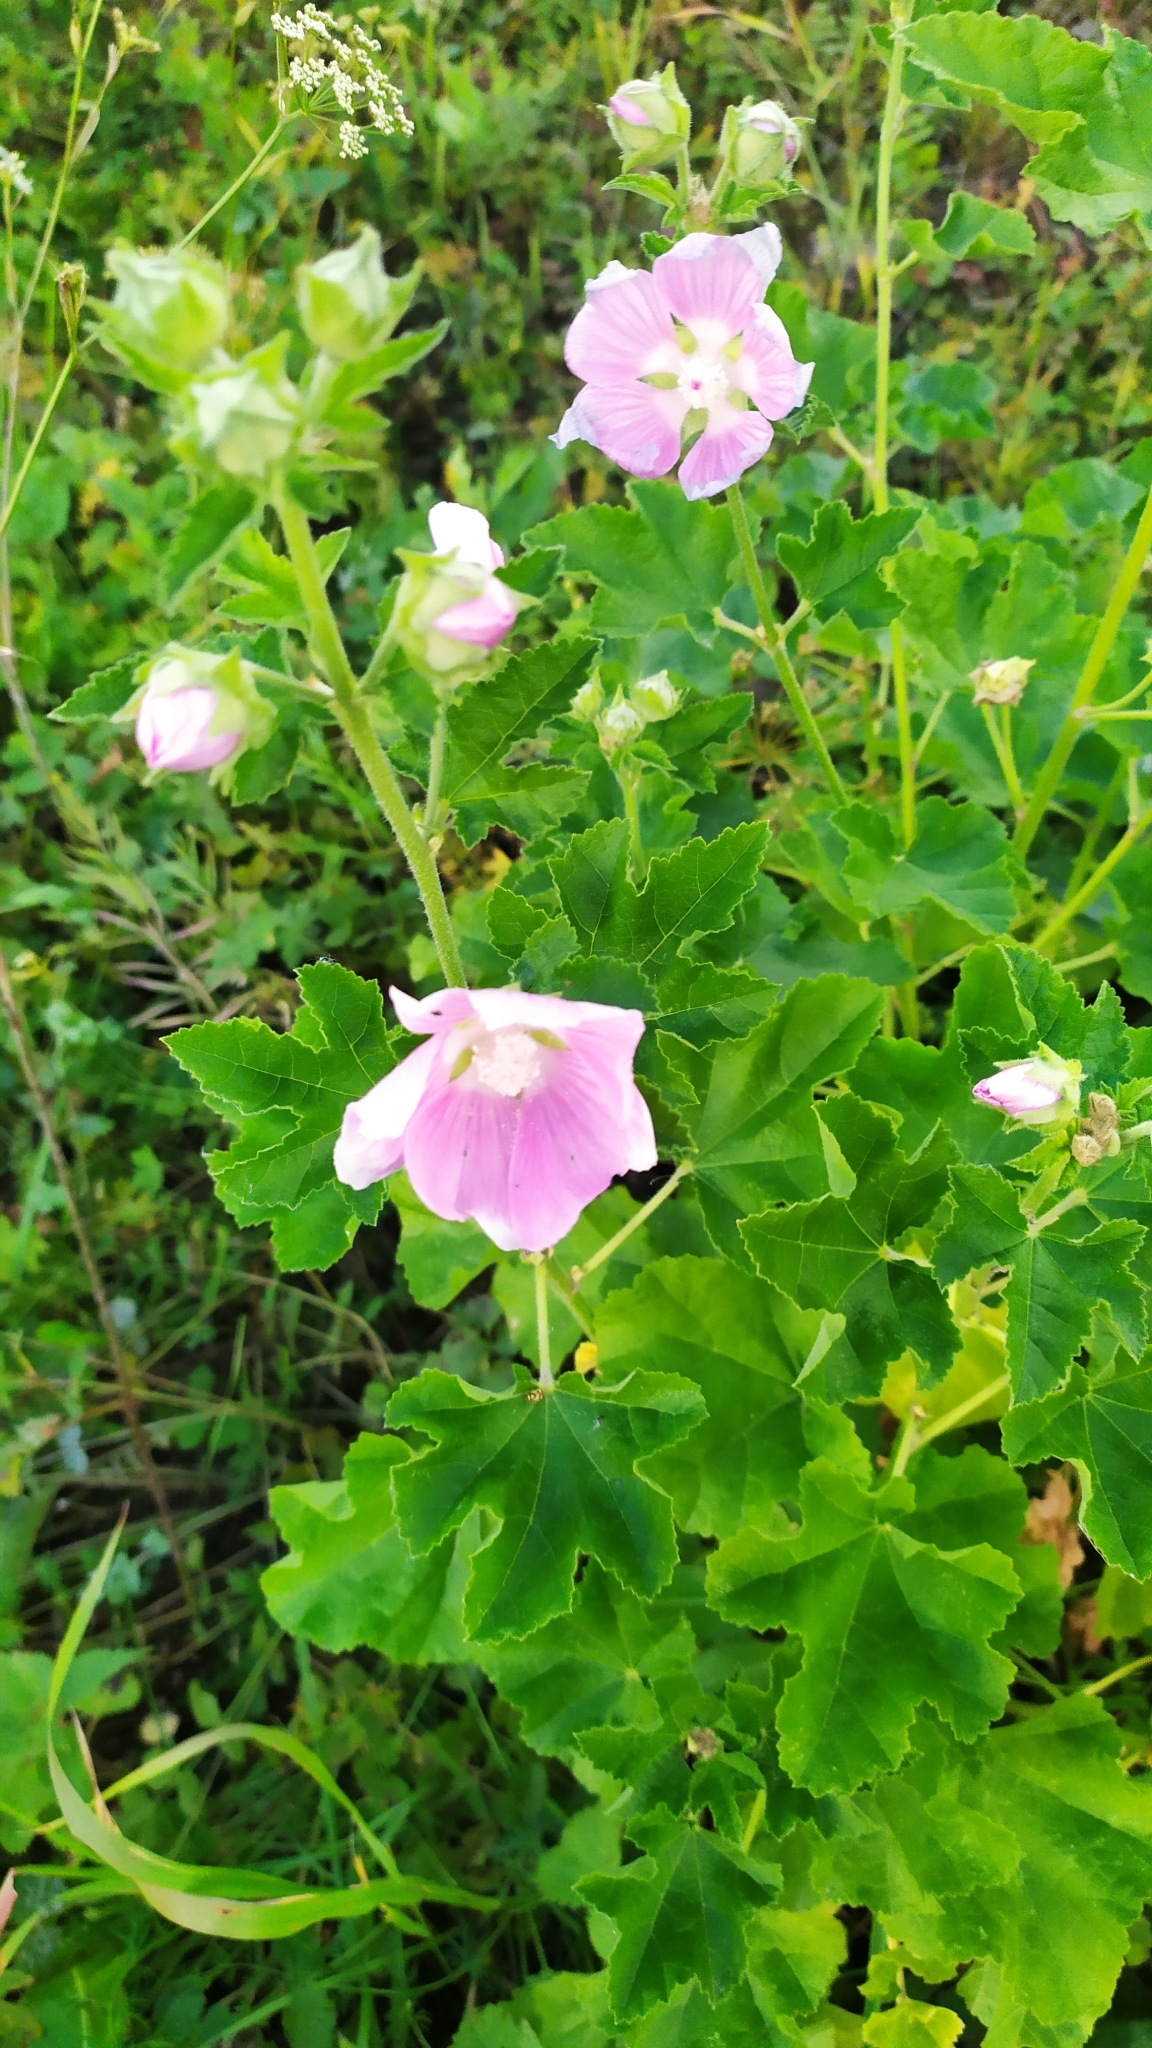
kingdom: Plantae
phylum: Tracheophyta
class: Magnoliopsida
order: Malvales
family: Malvaceae
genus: Malva
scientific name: Malva thuringiaca
